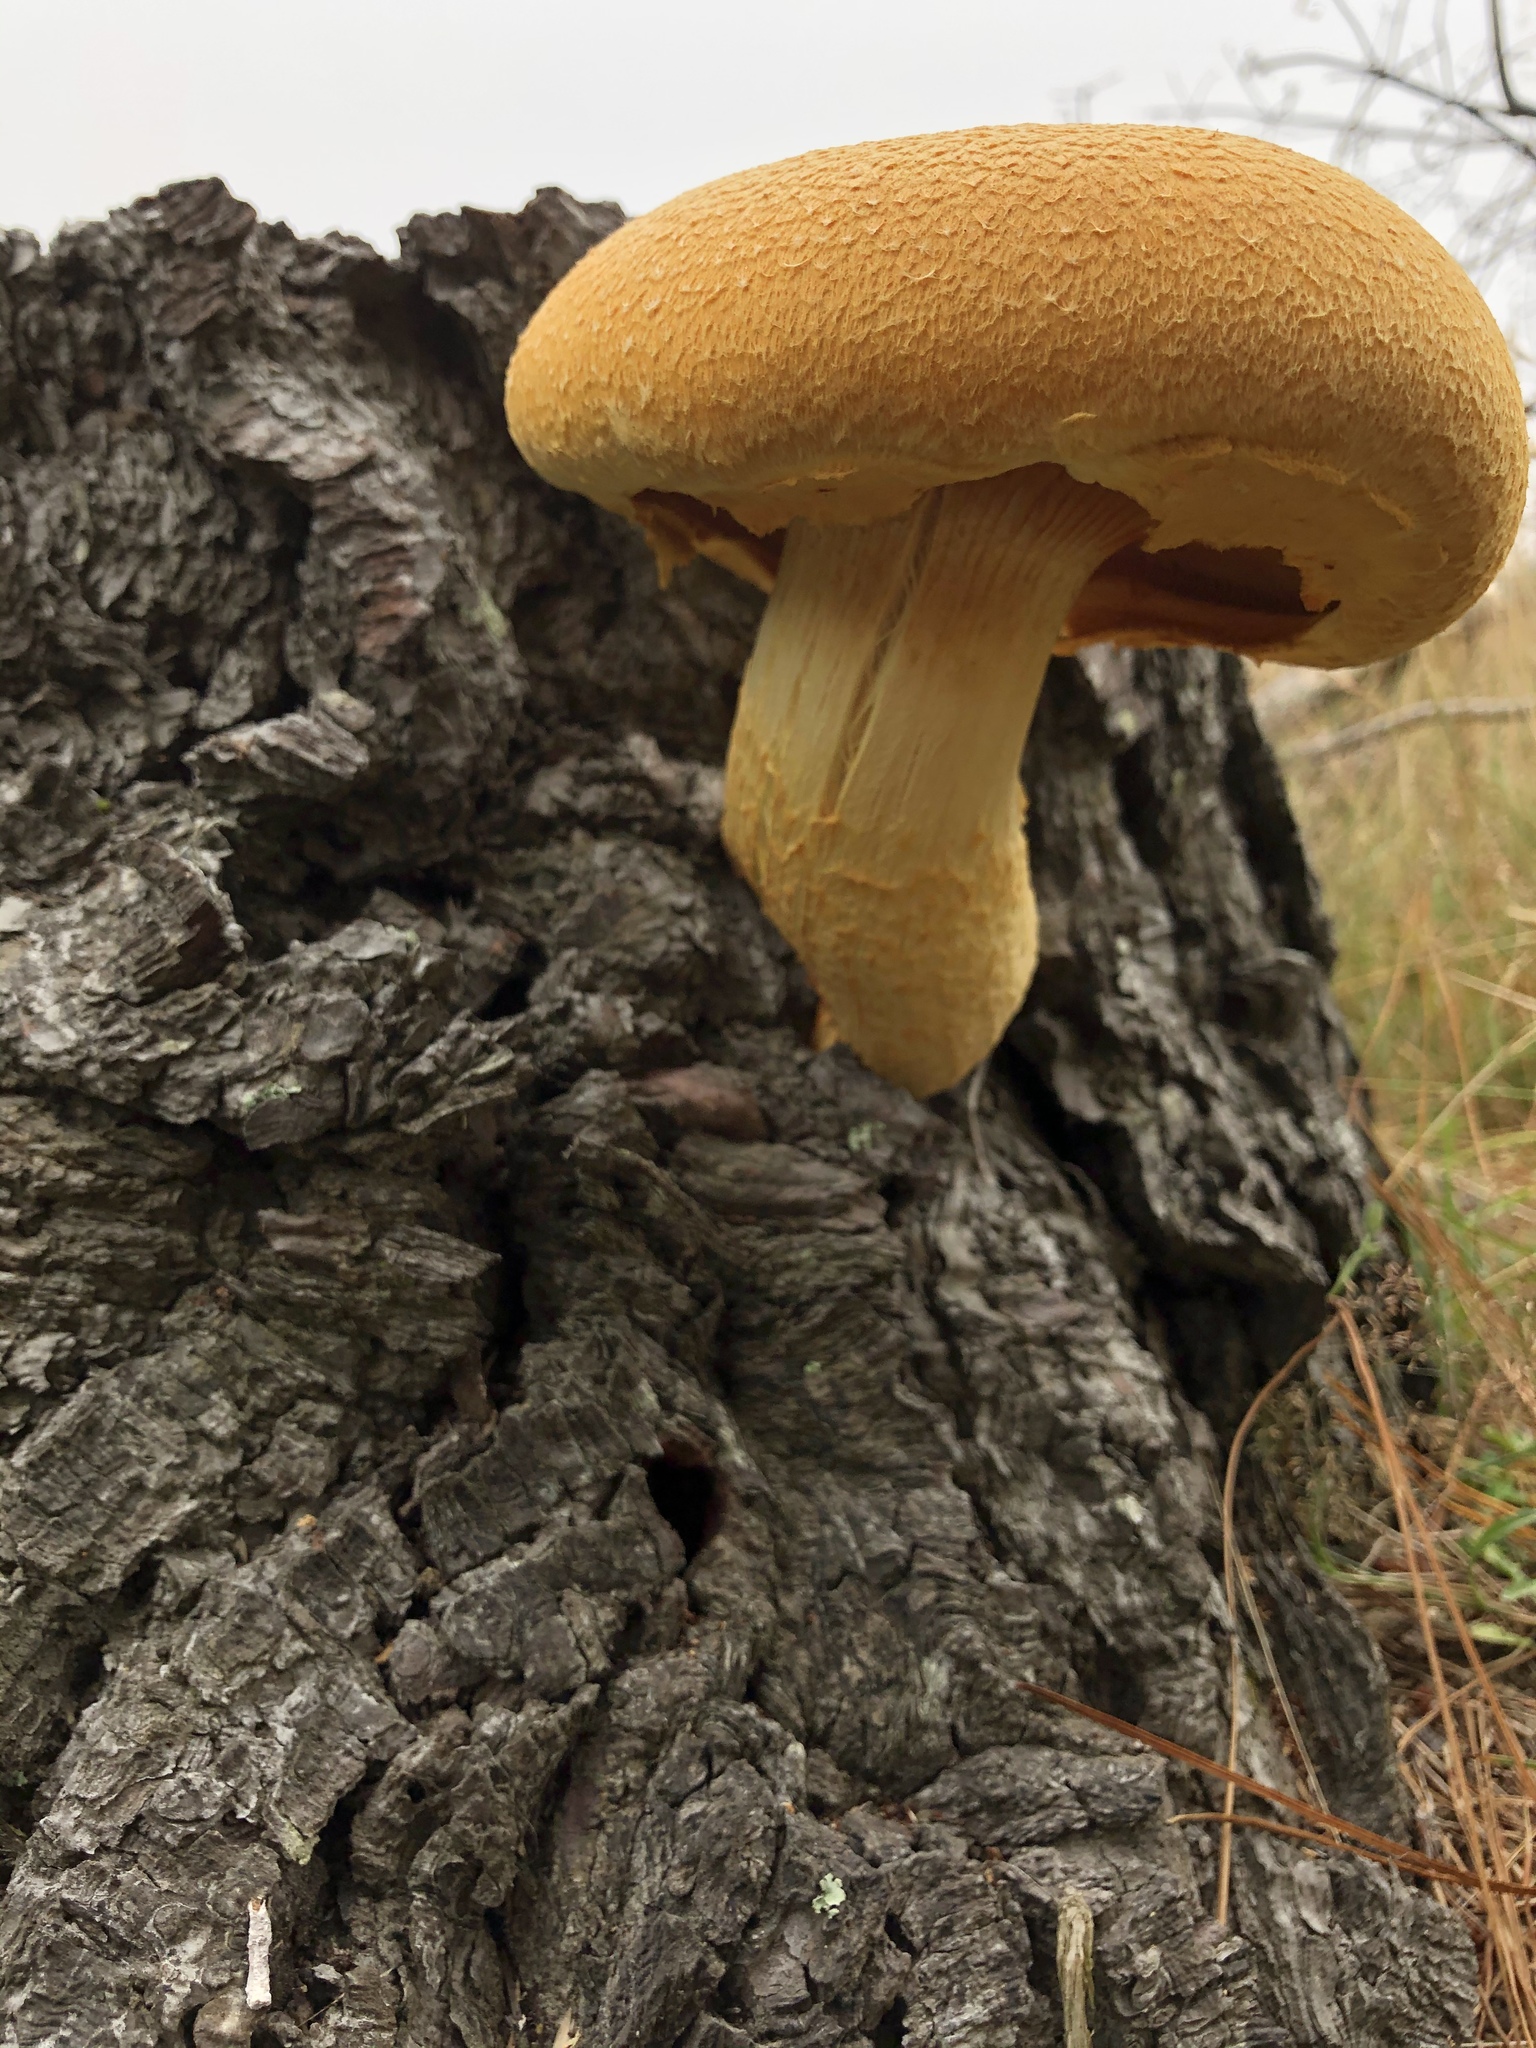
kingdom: Fungi
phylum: Basidiomycota
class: Agaricomycetes
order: Agaricales
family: Hymenogastraceae
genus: Gymnopilus
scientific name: Gymnopilus junonius
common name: Spectacular rustgill
